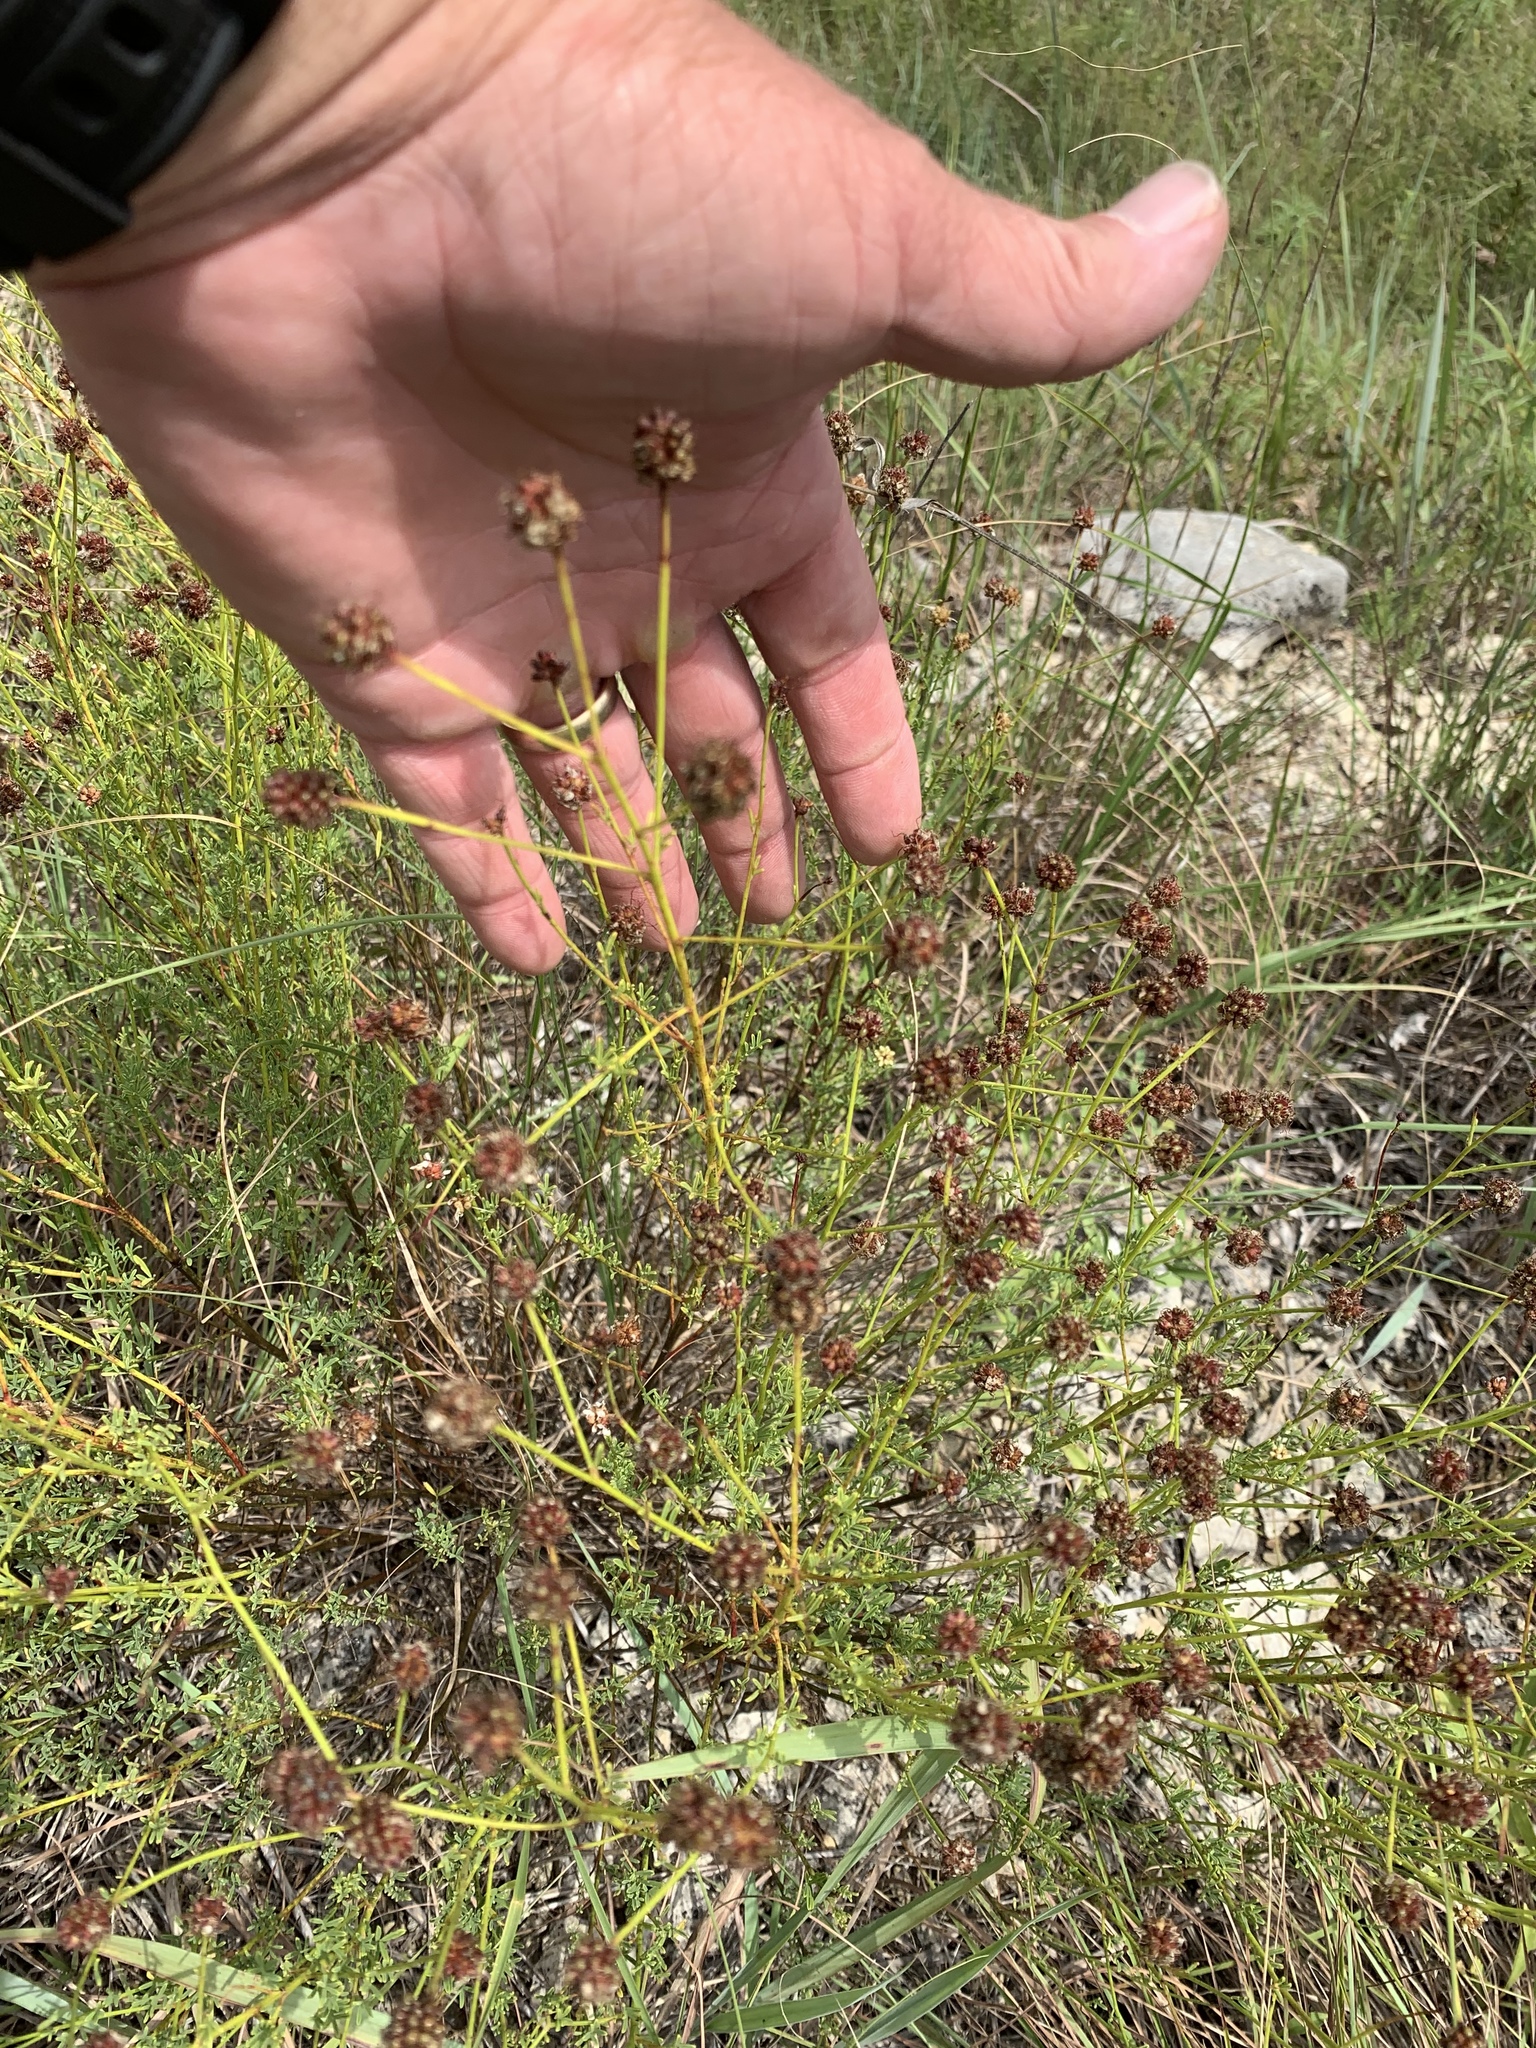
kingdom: Plantae
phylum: Tracheophyta
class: Magnoliopsida
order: Fabales
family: Fabaceae
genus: Dalea
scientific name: Dalea multiflora
